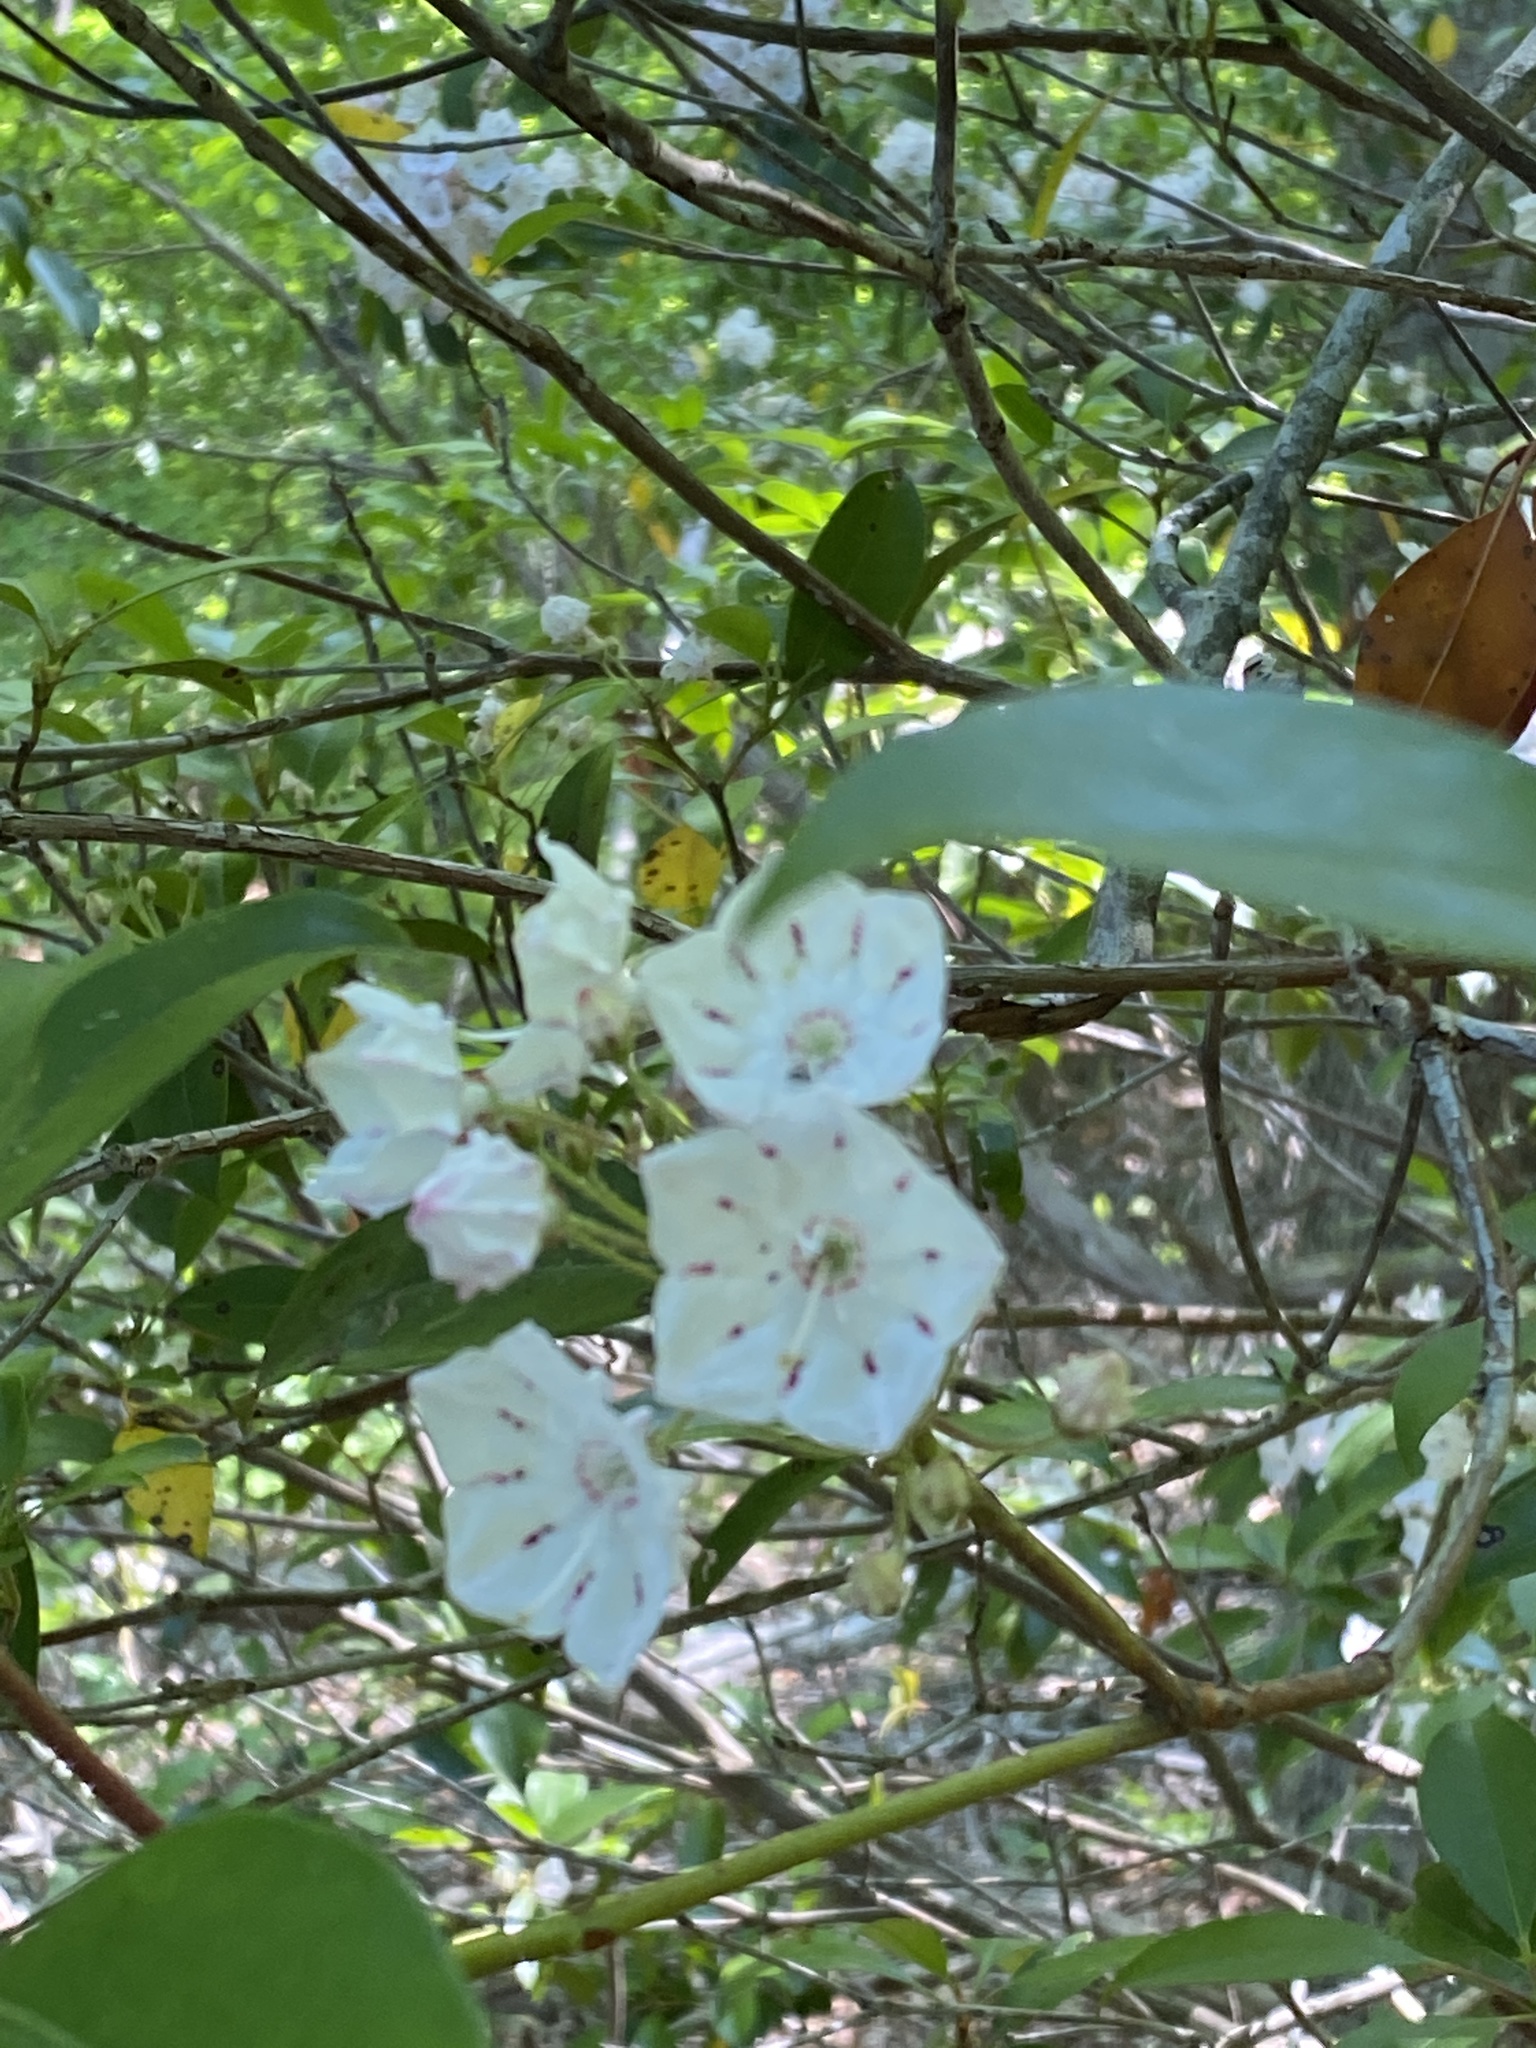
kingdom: Plantae
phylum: Tracheophyta
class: Magnoliopsida
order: Ericales
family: Ericaceae
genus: Kalmia
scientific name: Kalmia latifolia
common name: Mountain-laurel
